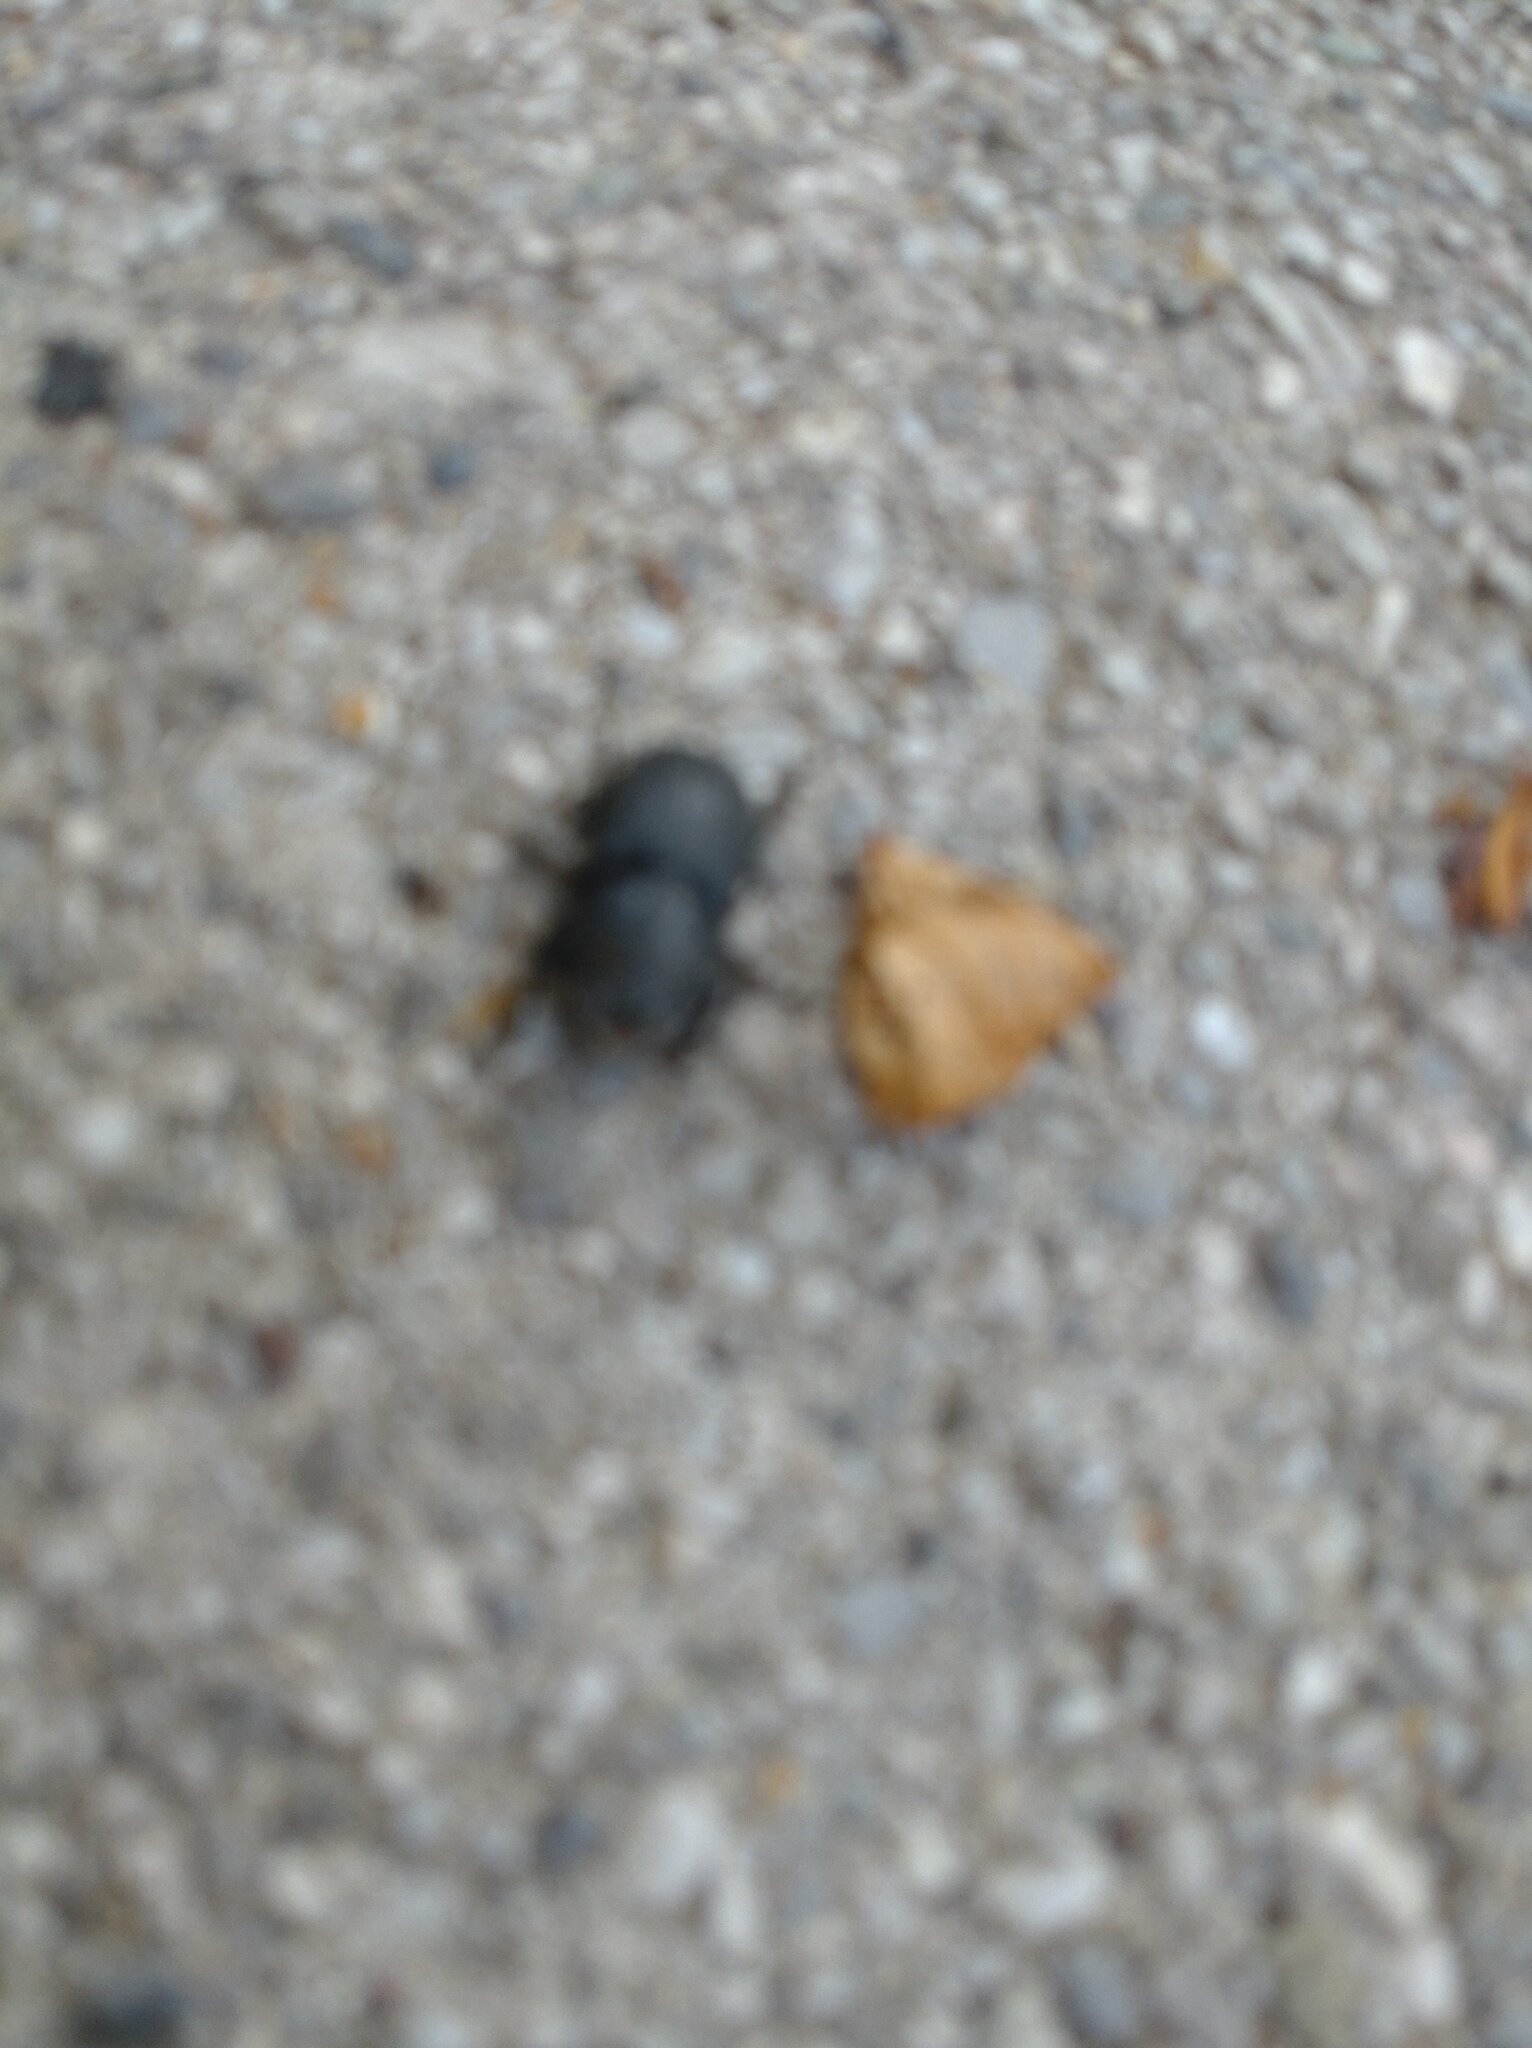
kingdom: Animalia
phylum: Arthropoda
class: Insecta
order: Coleoptera
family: Lucanidae
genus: Dorcus
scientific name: Dorcus parallelipipedus
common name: Lesser stag beetle
